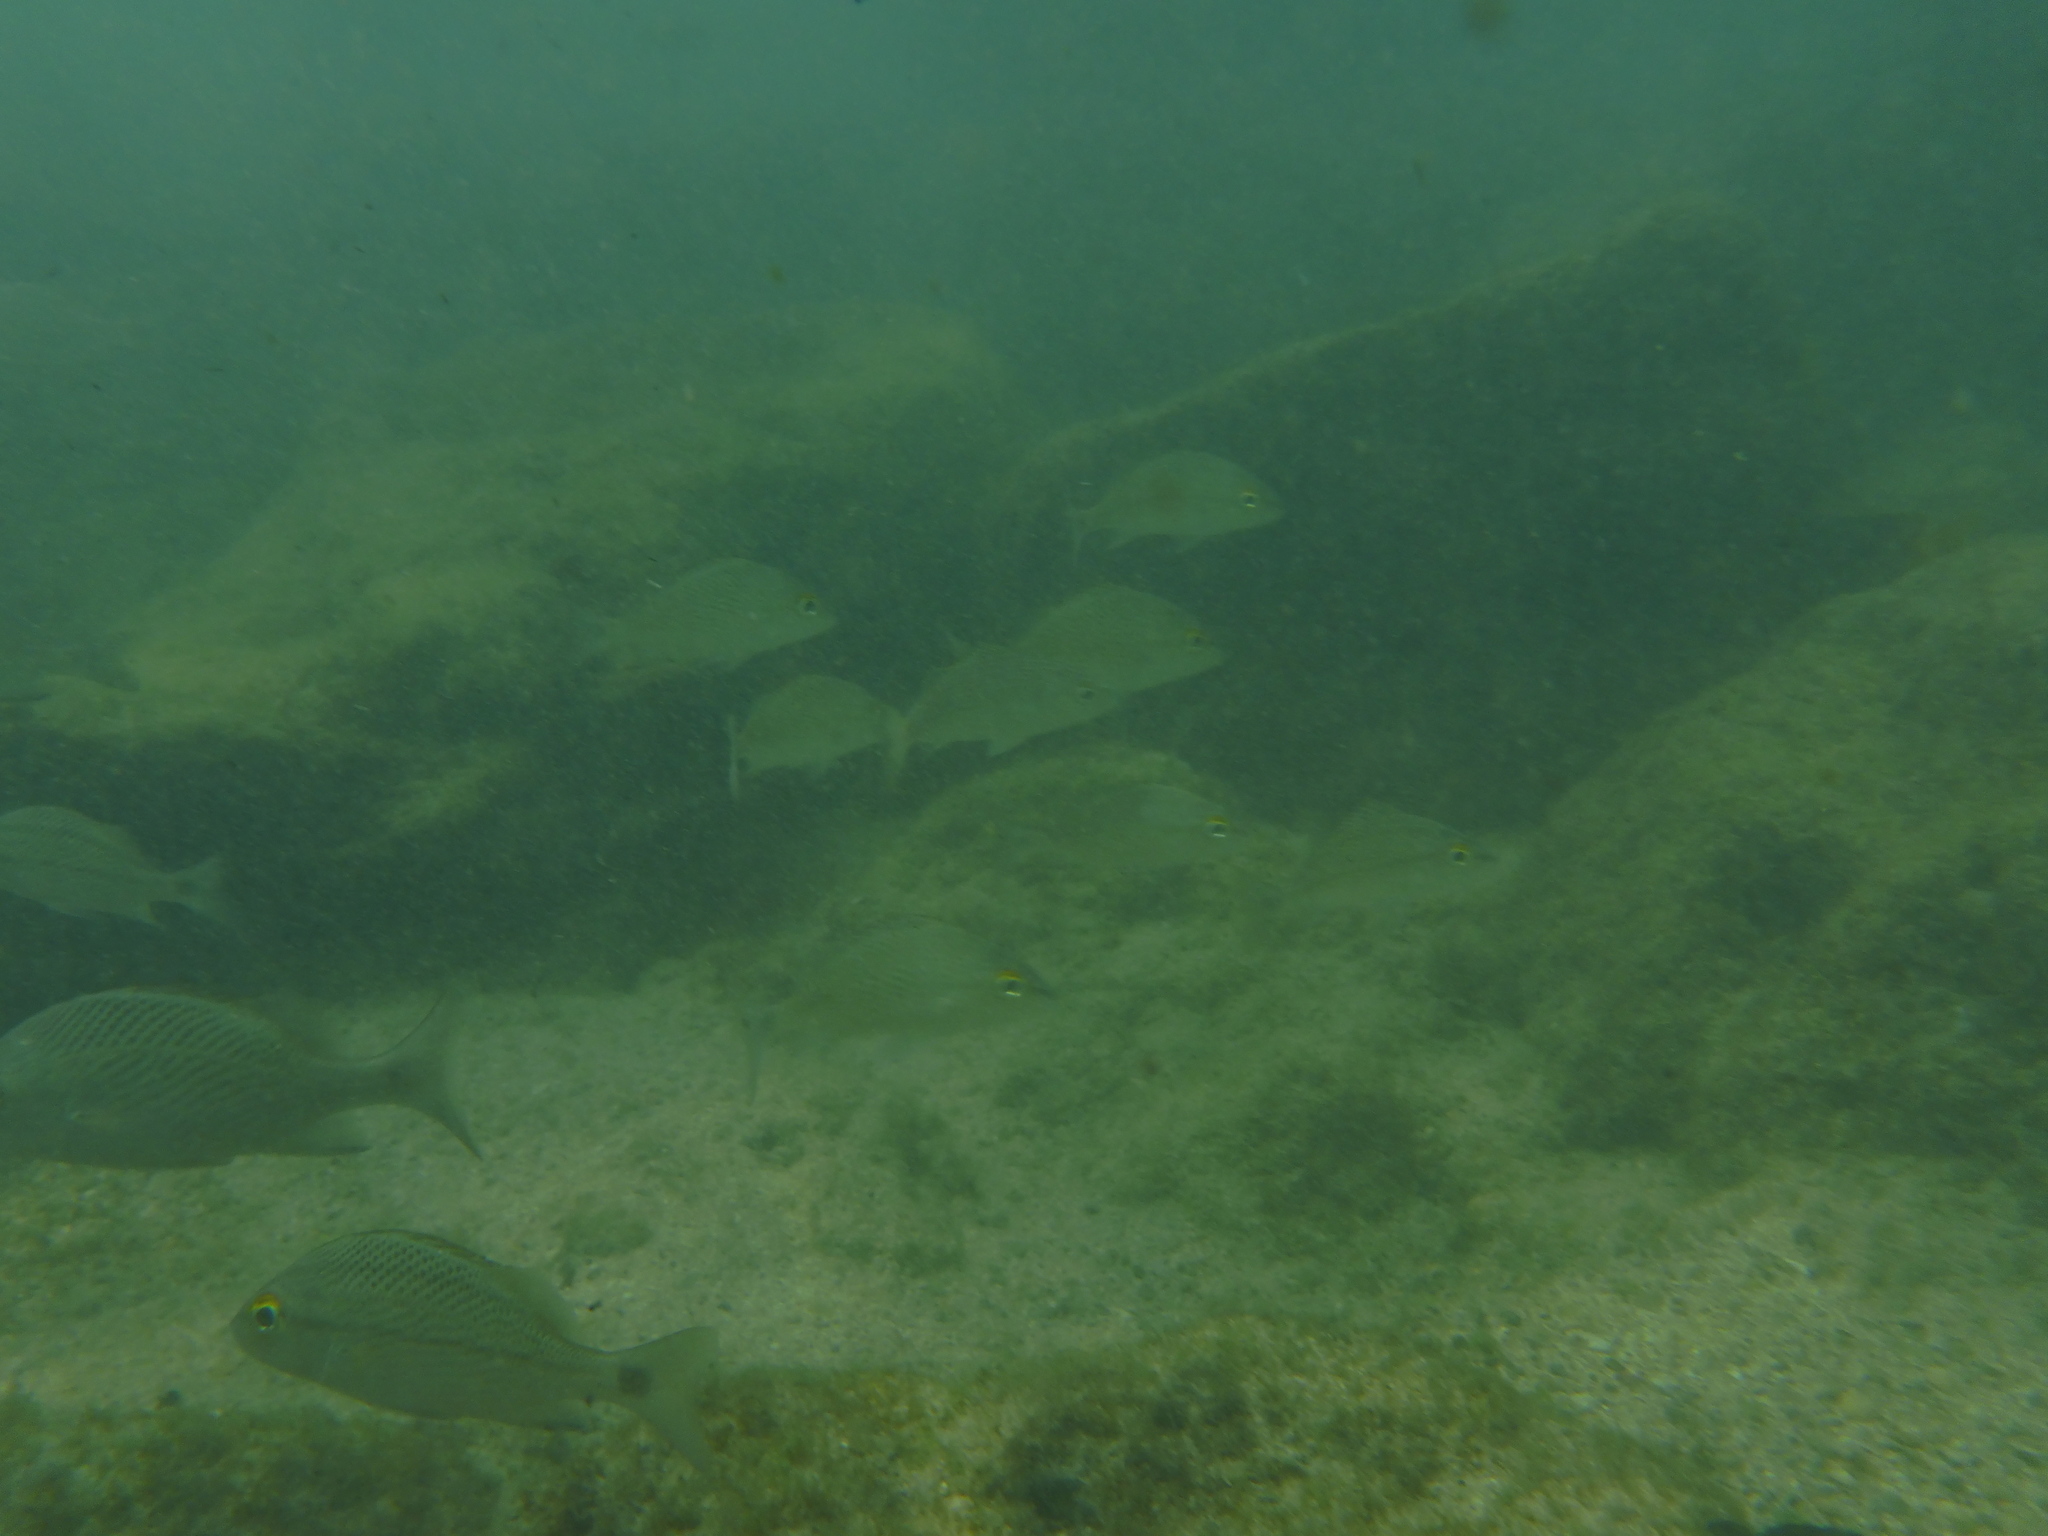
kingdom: Animalia
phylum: Chordata
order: Perciformes
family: Haemulidae
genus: Haemulon
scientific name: Haemulon scudderii
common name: Grey grunt
